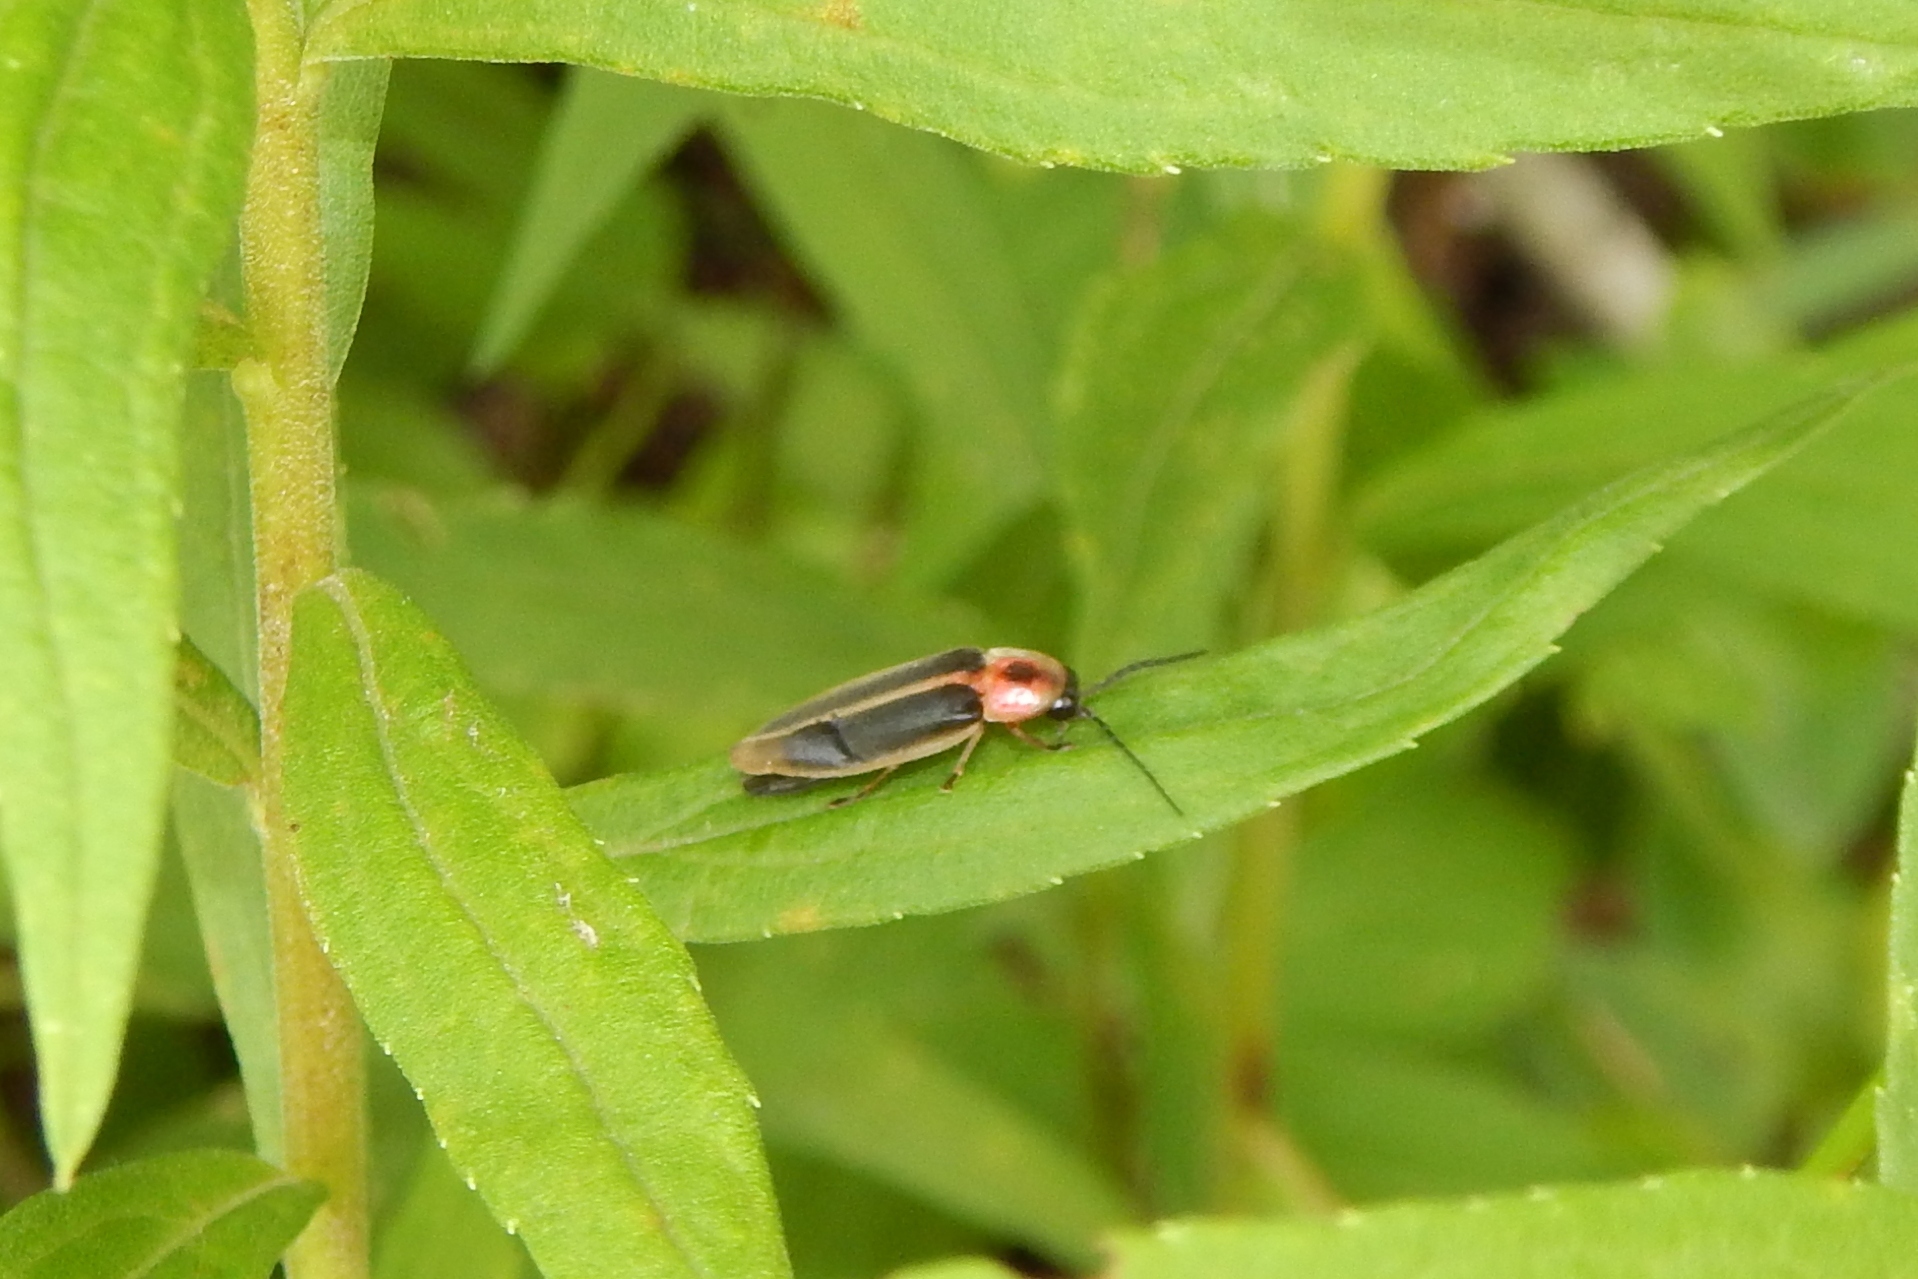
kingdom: Animalia
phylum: Arthropoda
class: Insecta
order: Coleoptera
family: Lampyridae
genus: Photinus
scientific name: Photinus pyralis
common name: Big dipper firefly
